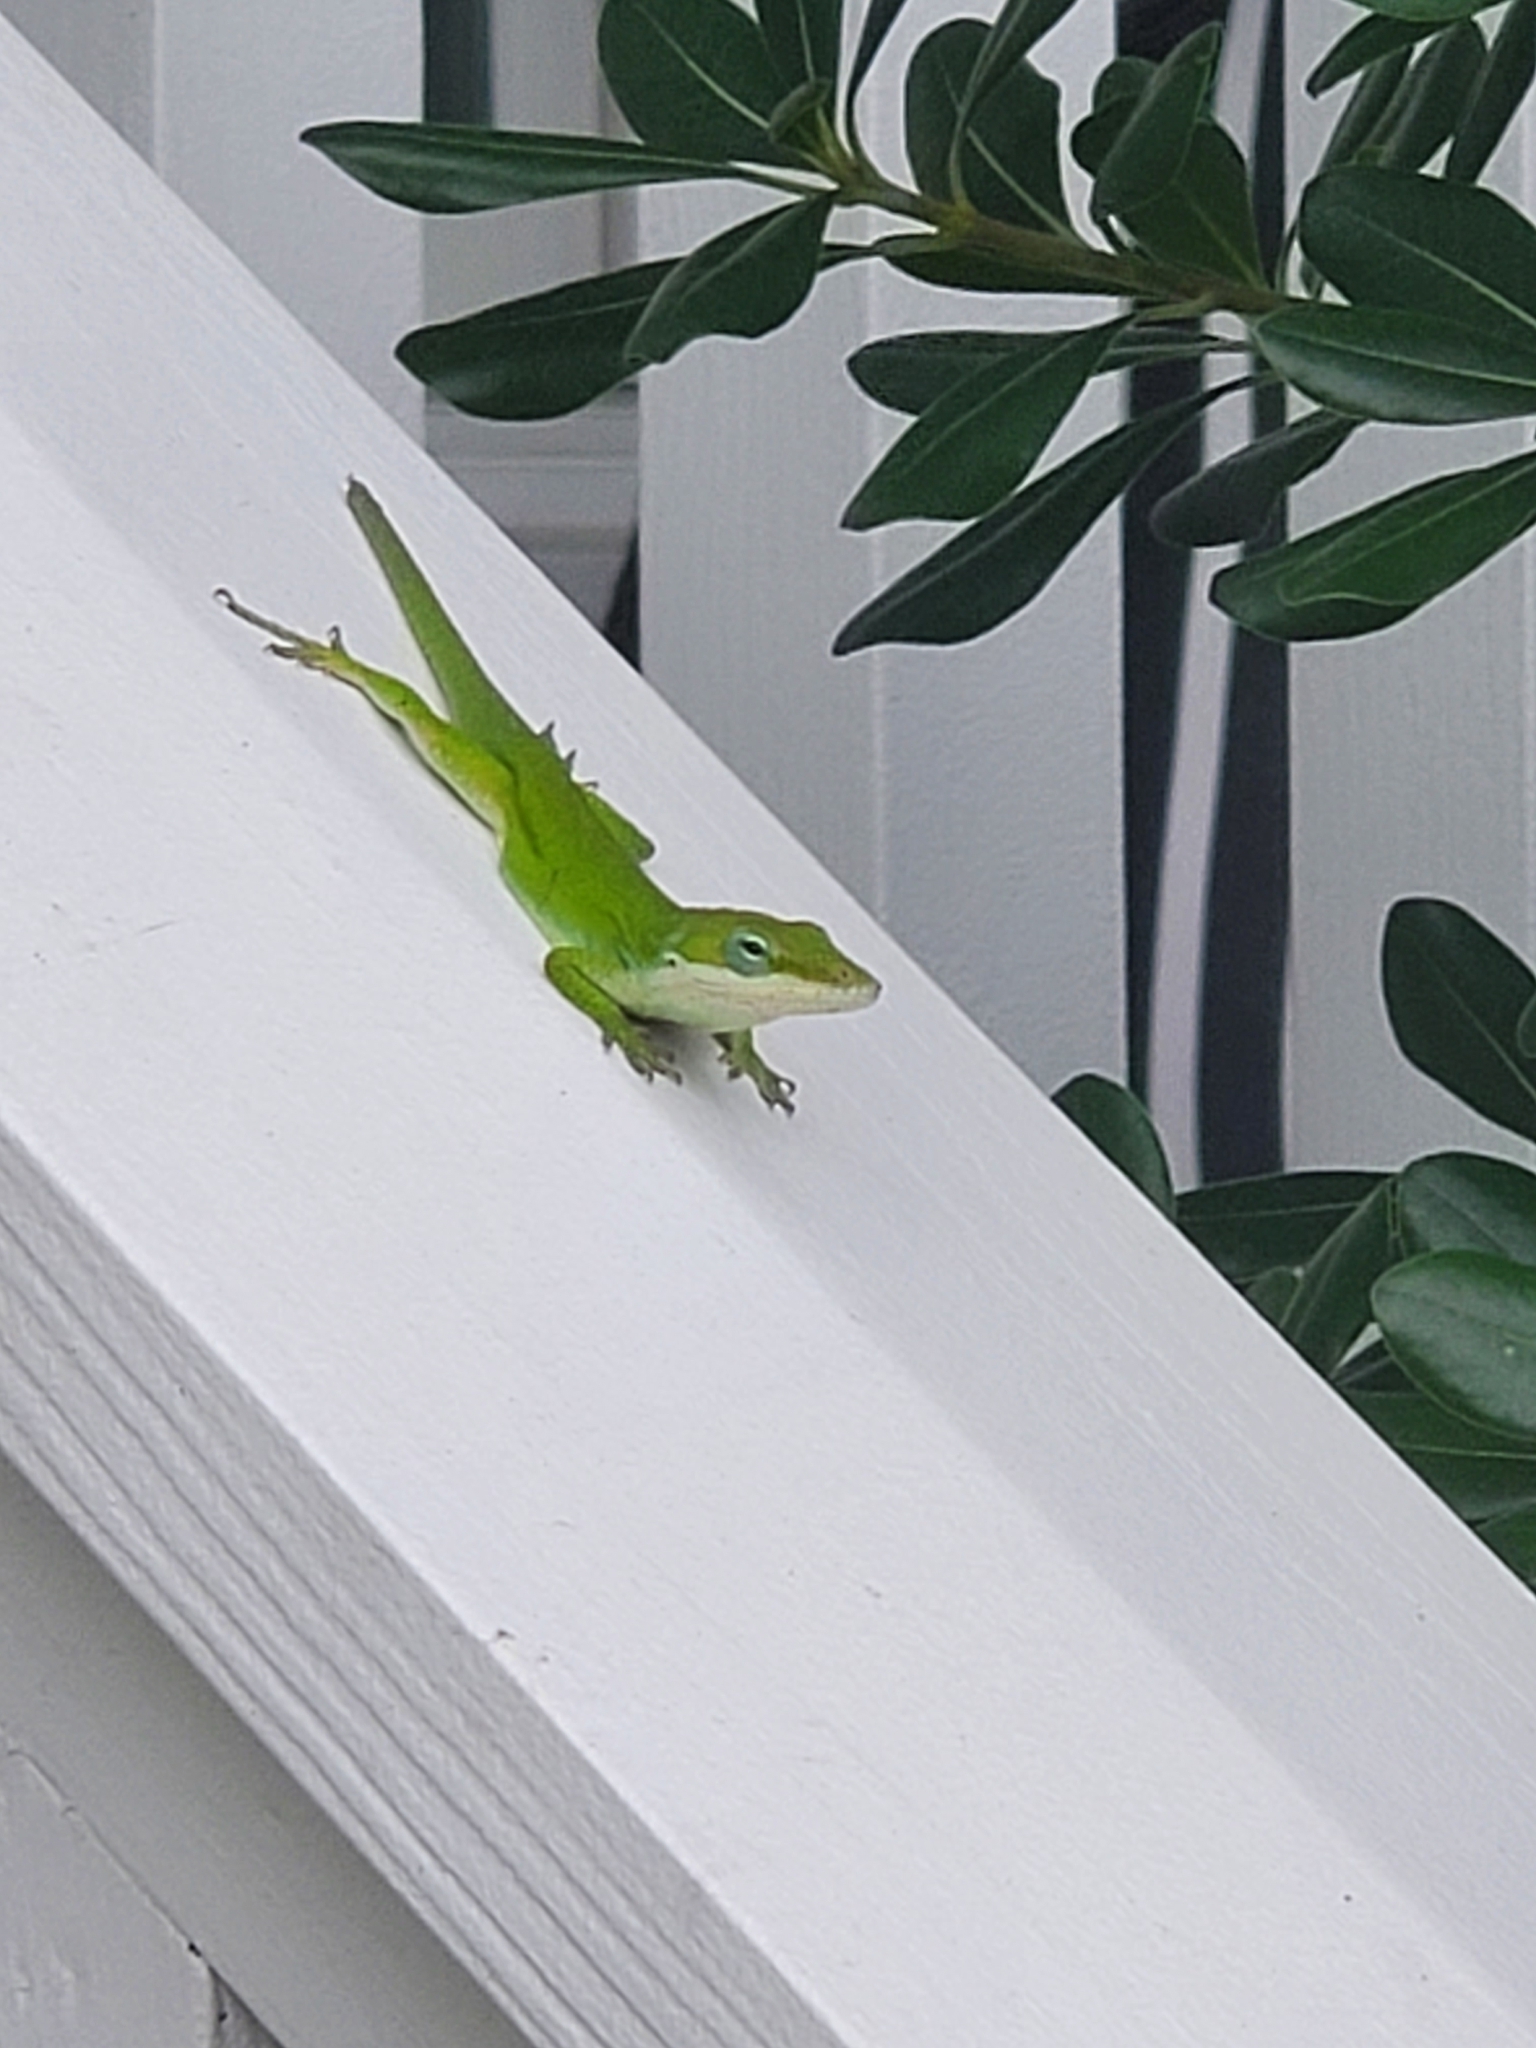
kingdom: Animalia
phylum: Chordata
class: Squamata
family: Dactyloidae
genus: Anolis
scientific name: Anolis carolinensis
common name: Green anole
